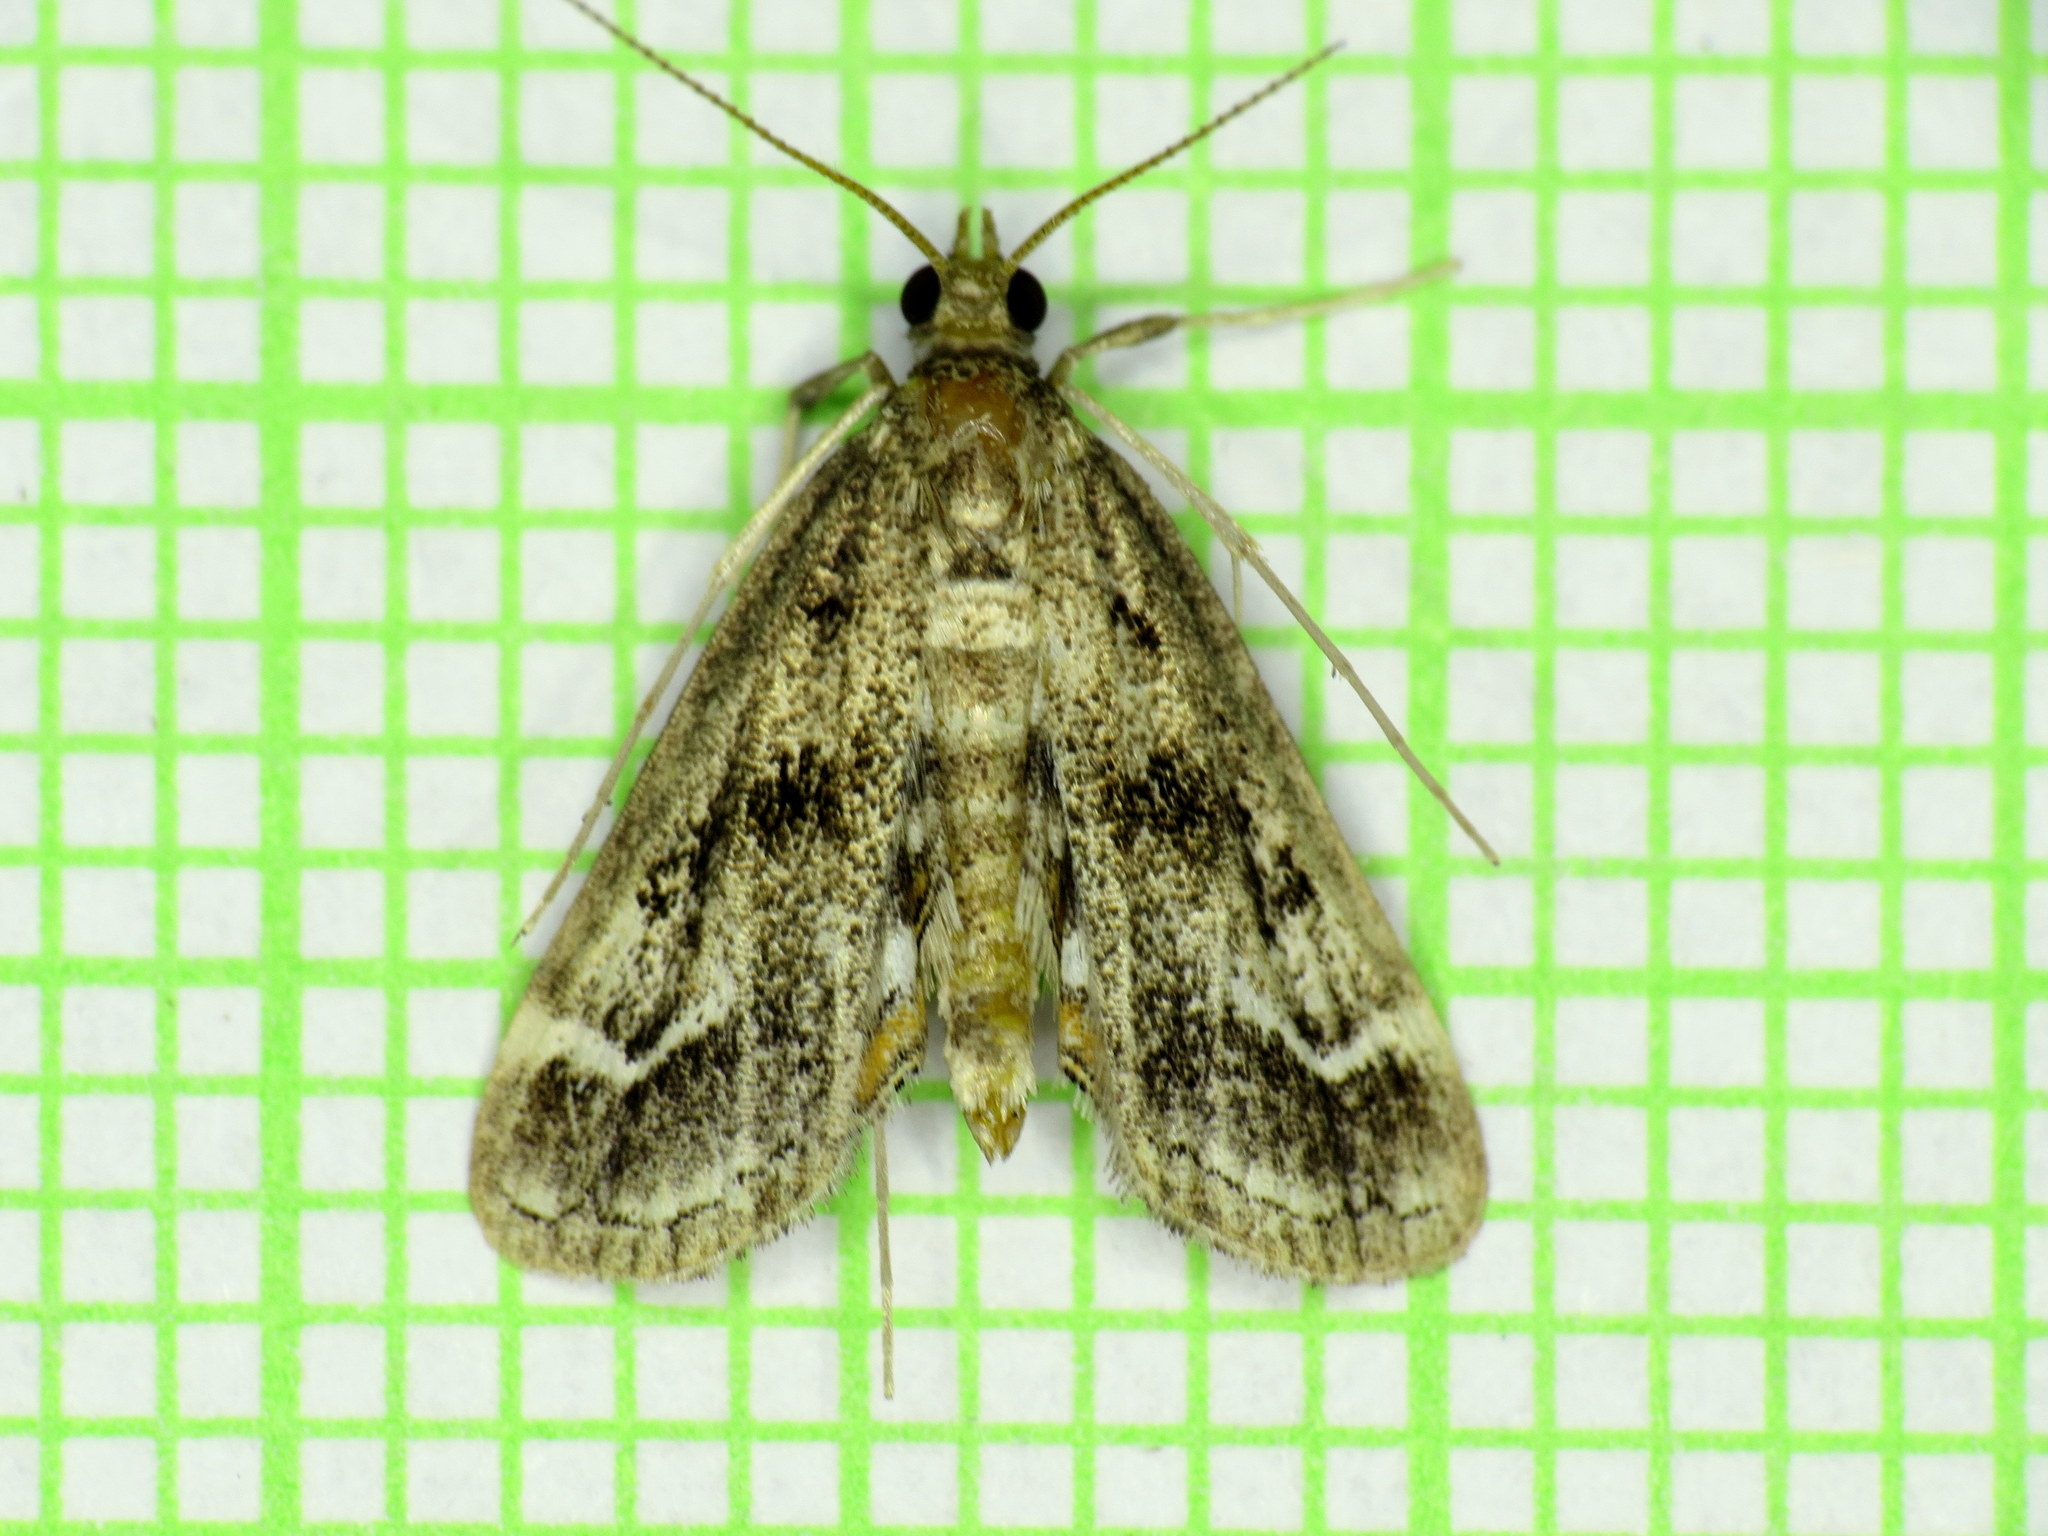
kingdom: Animalia
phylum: Arthropoda
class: Insecta
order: Lepidoptera
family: Crambidae
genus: Parapoynx
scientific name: Parapoynx obscuralis
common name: American china-mark
